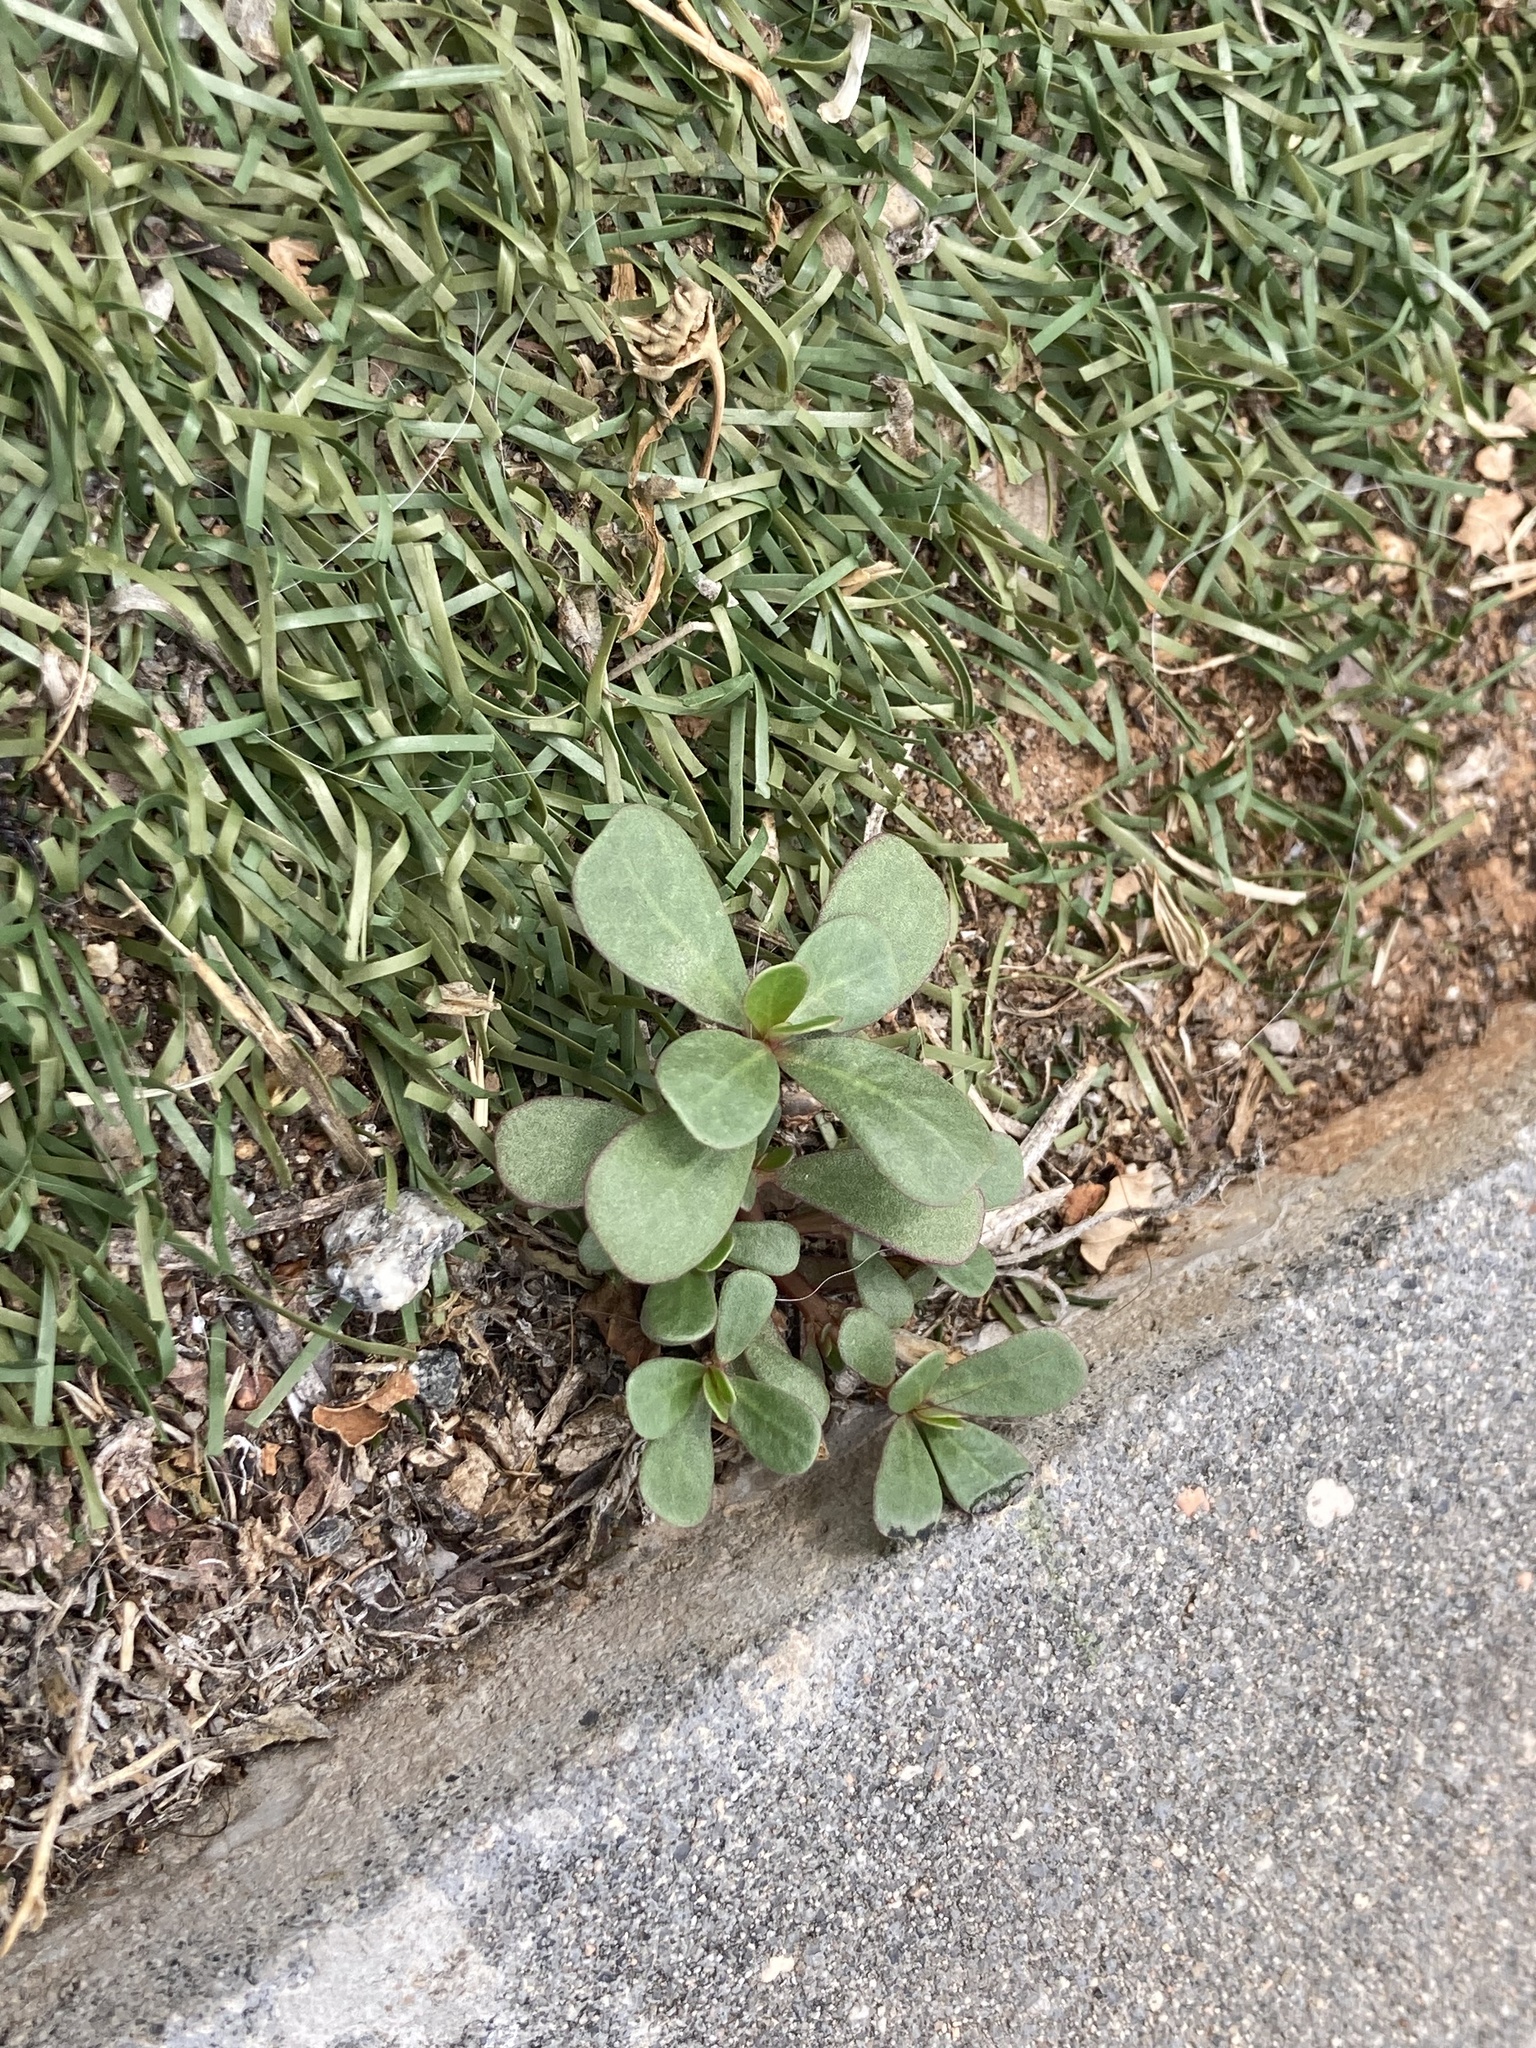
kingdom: Plantae
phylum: Tracheophyta
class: Magnoliopsida
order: Caryophyllales
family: Portulacaceae
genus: Portulaca
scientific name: Portulaca oleracea
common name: Common purslane
